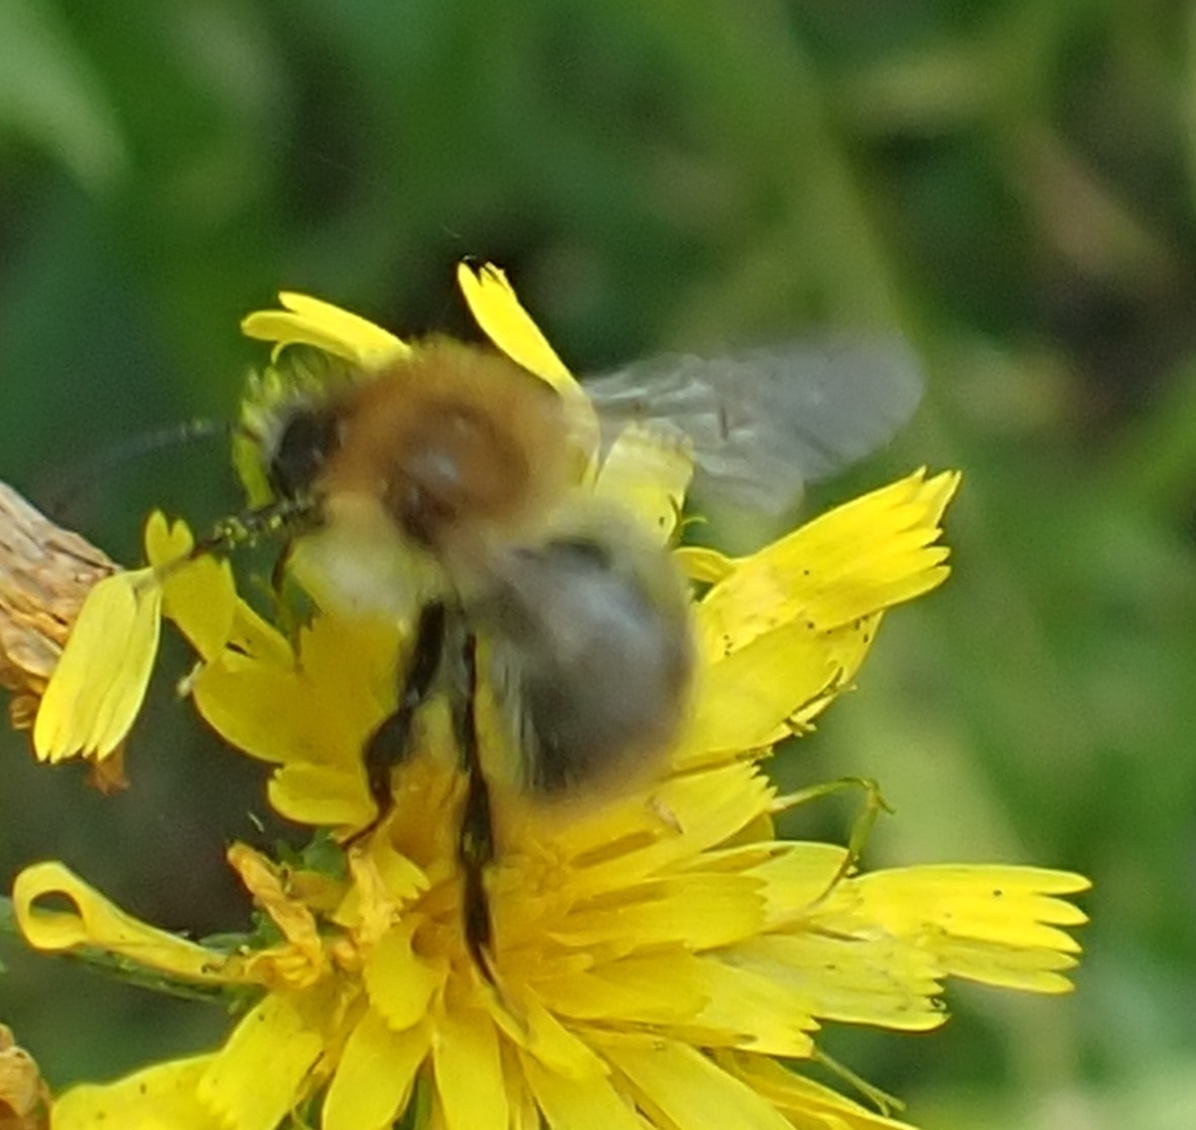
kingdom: Animalia
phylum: Arthropoda
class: Insecta
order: Hymenoptera
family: Apidae
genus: Bombus
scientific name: Bombus pascuorum
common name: Common carder bee
